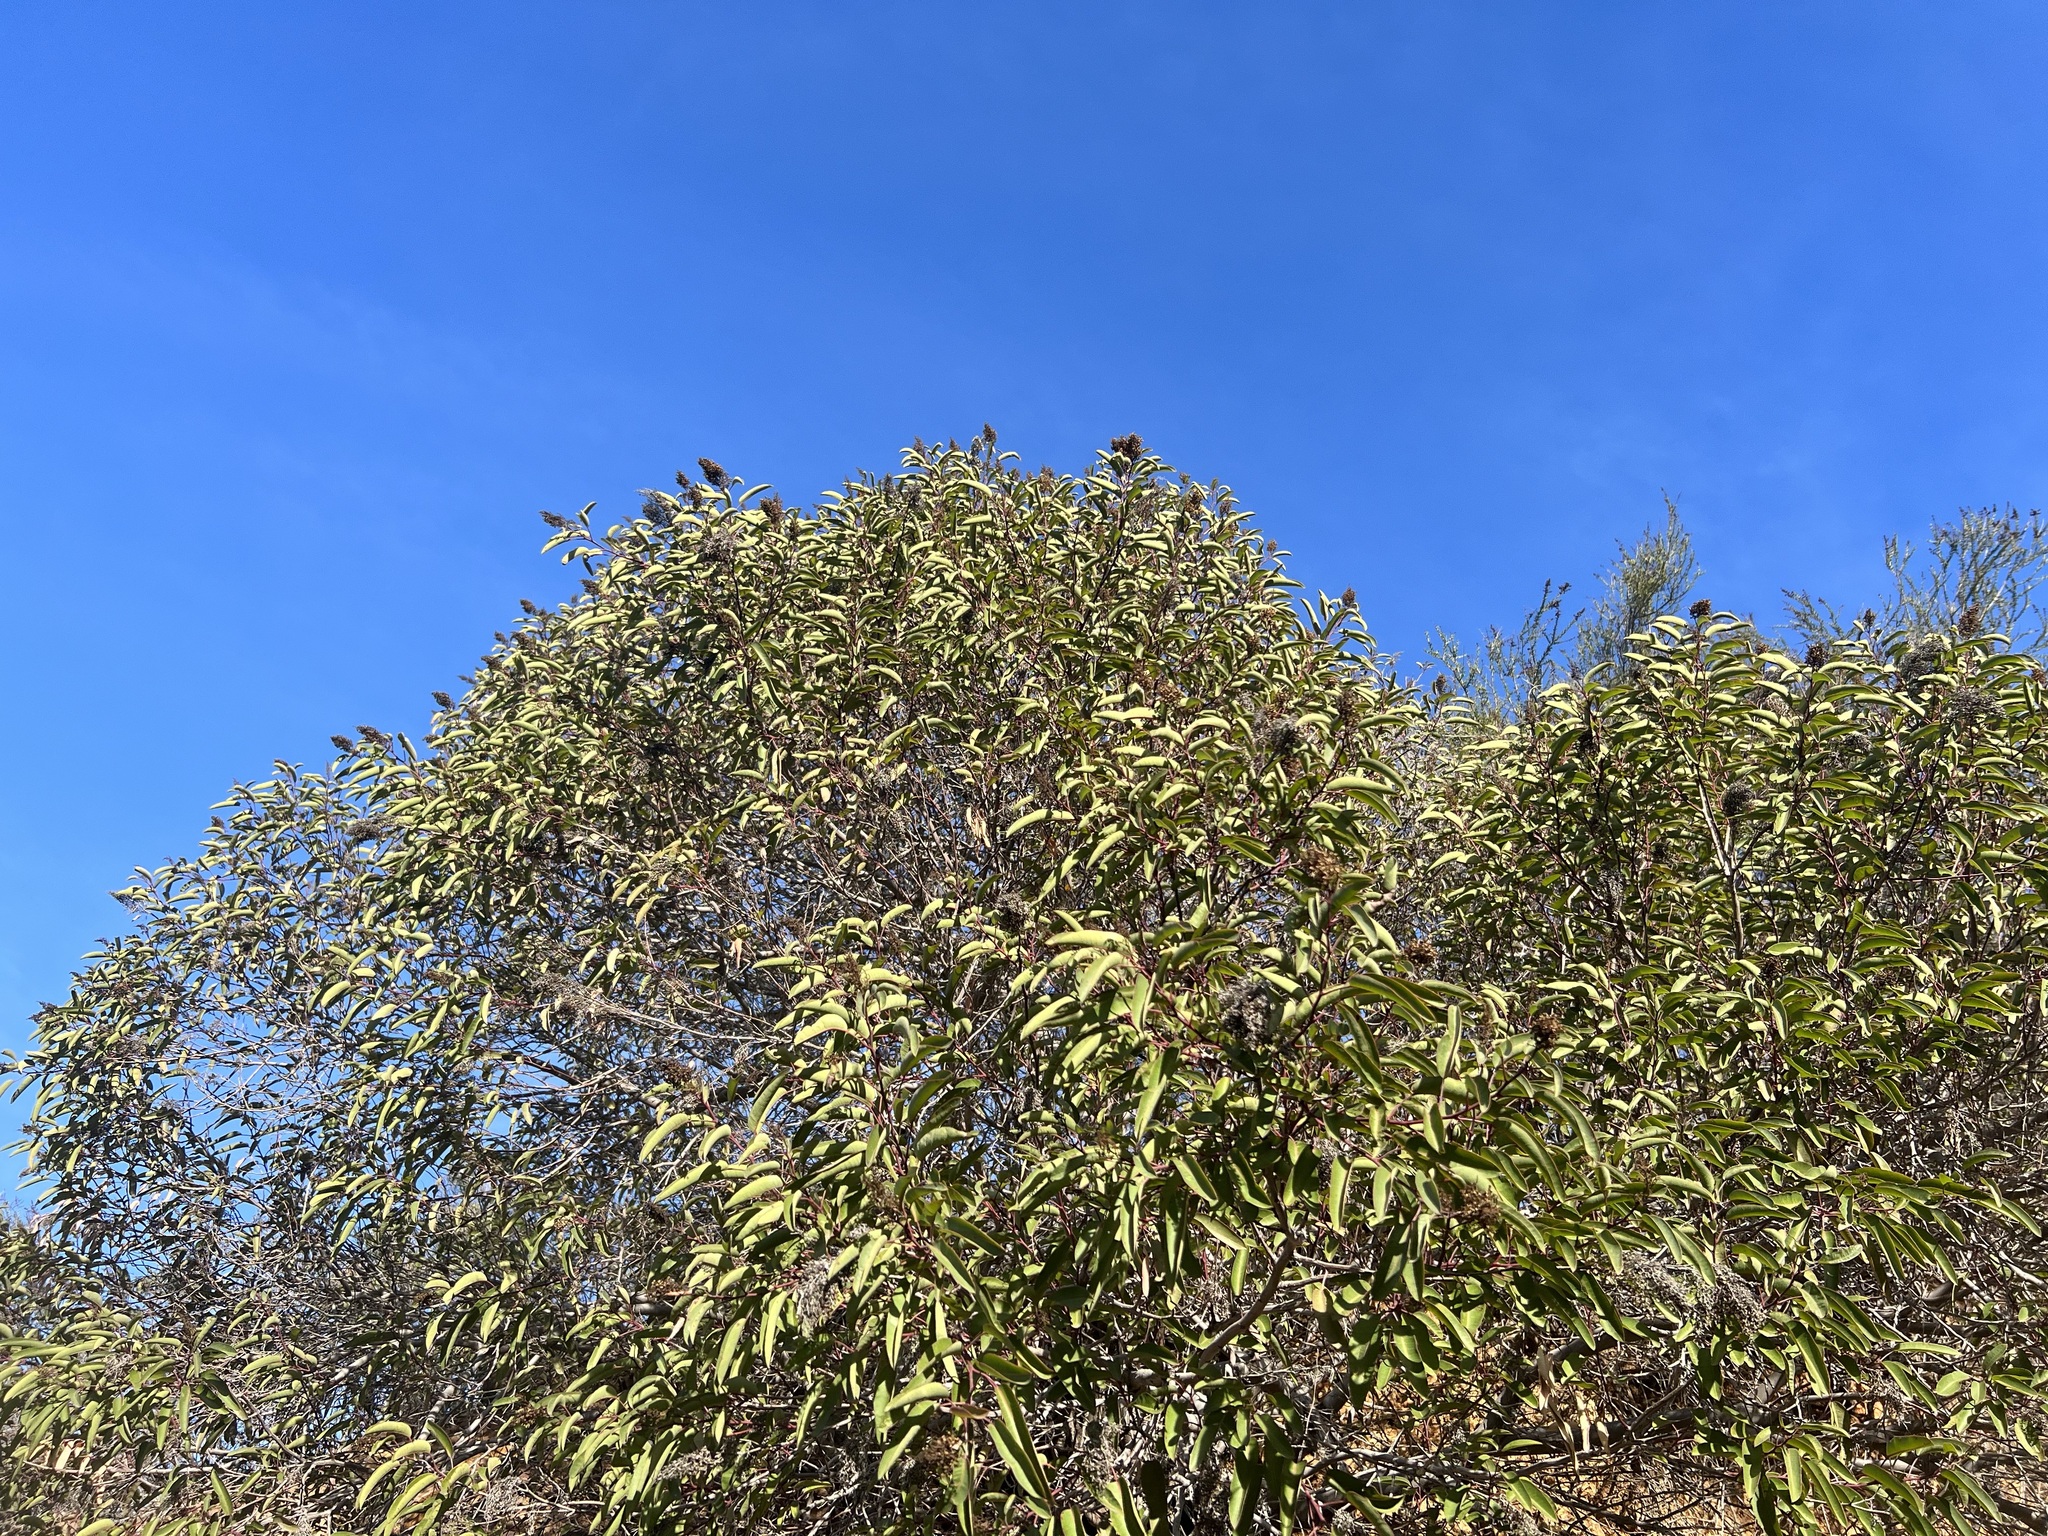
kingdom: Plantae
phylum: Tracheophyta
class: Magnoliopsida
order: Sapindales
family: Anacardiaceae
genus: Malosma
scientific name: Malosma laurina
